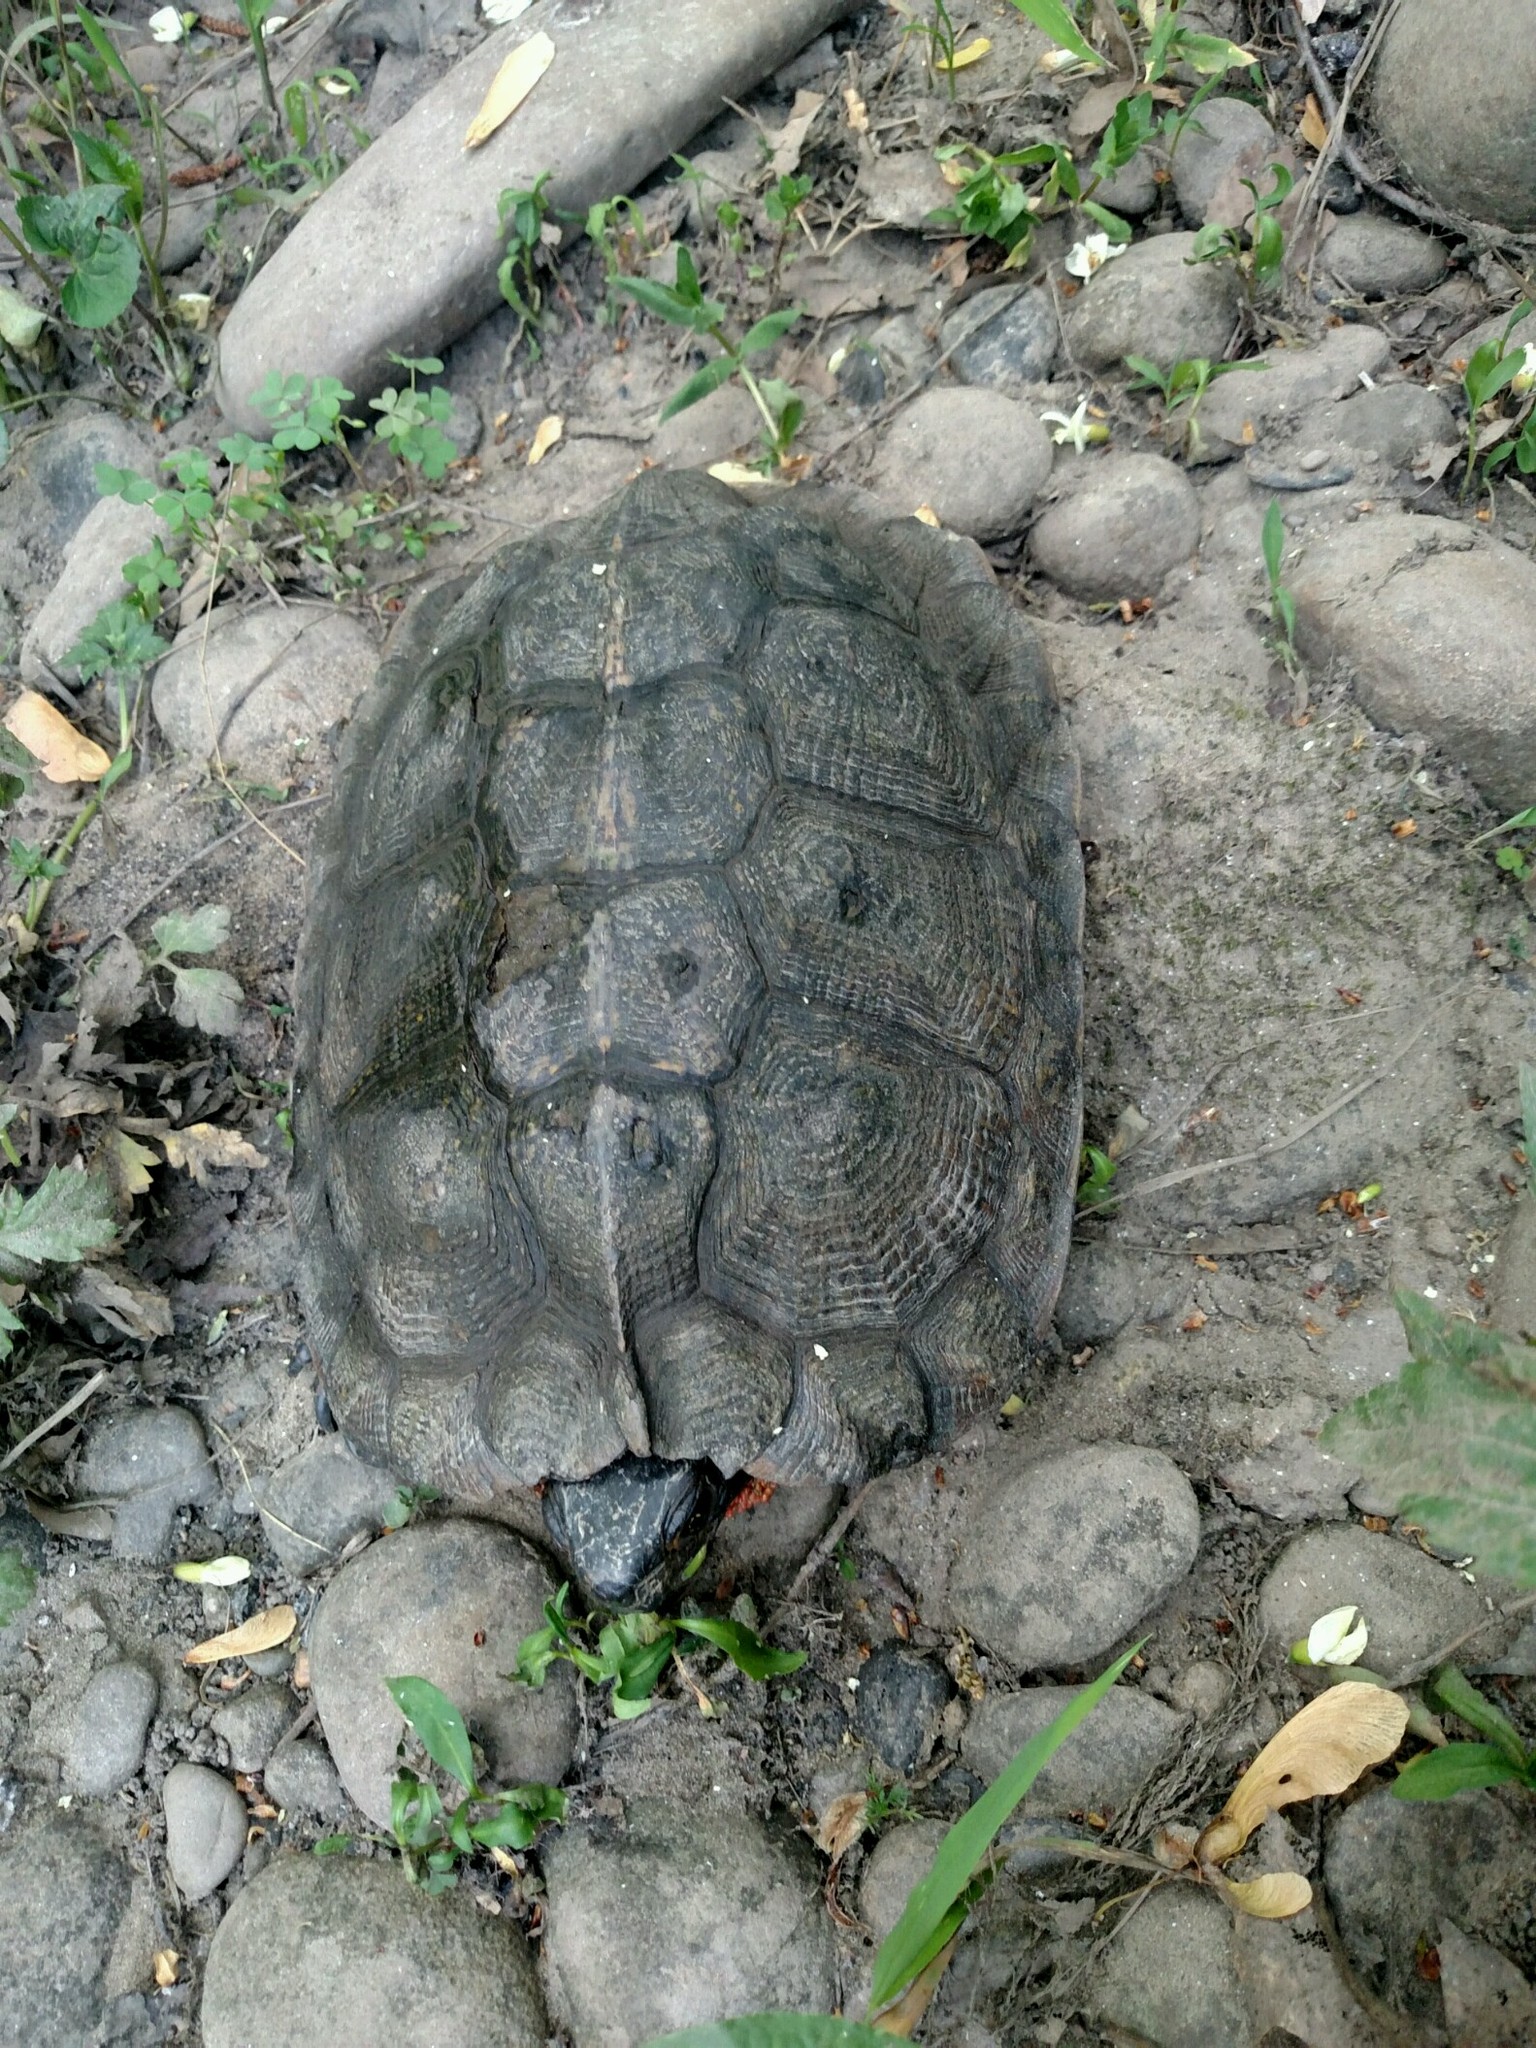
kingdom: Animalia
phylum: Chordata
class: Testudines
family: Emydidae
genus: Glyptemys
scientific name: Glyptemys insculpta
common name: Wood turtle
